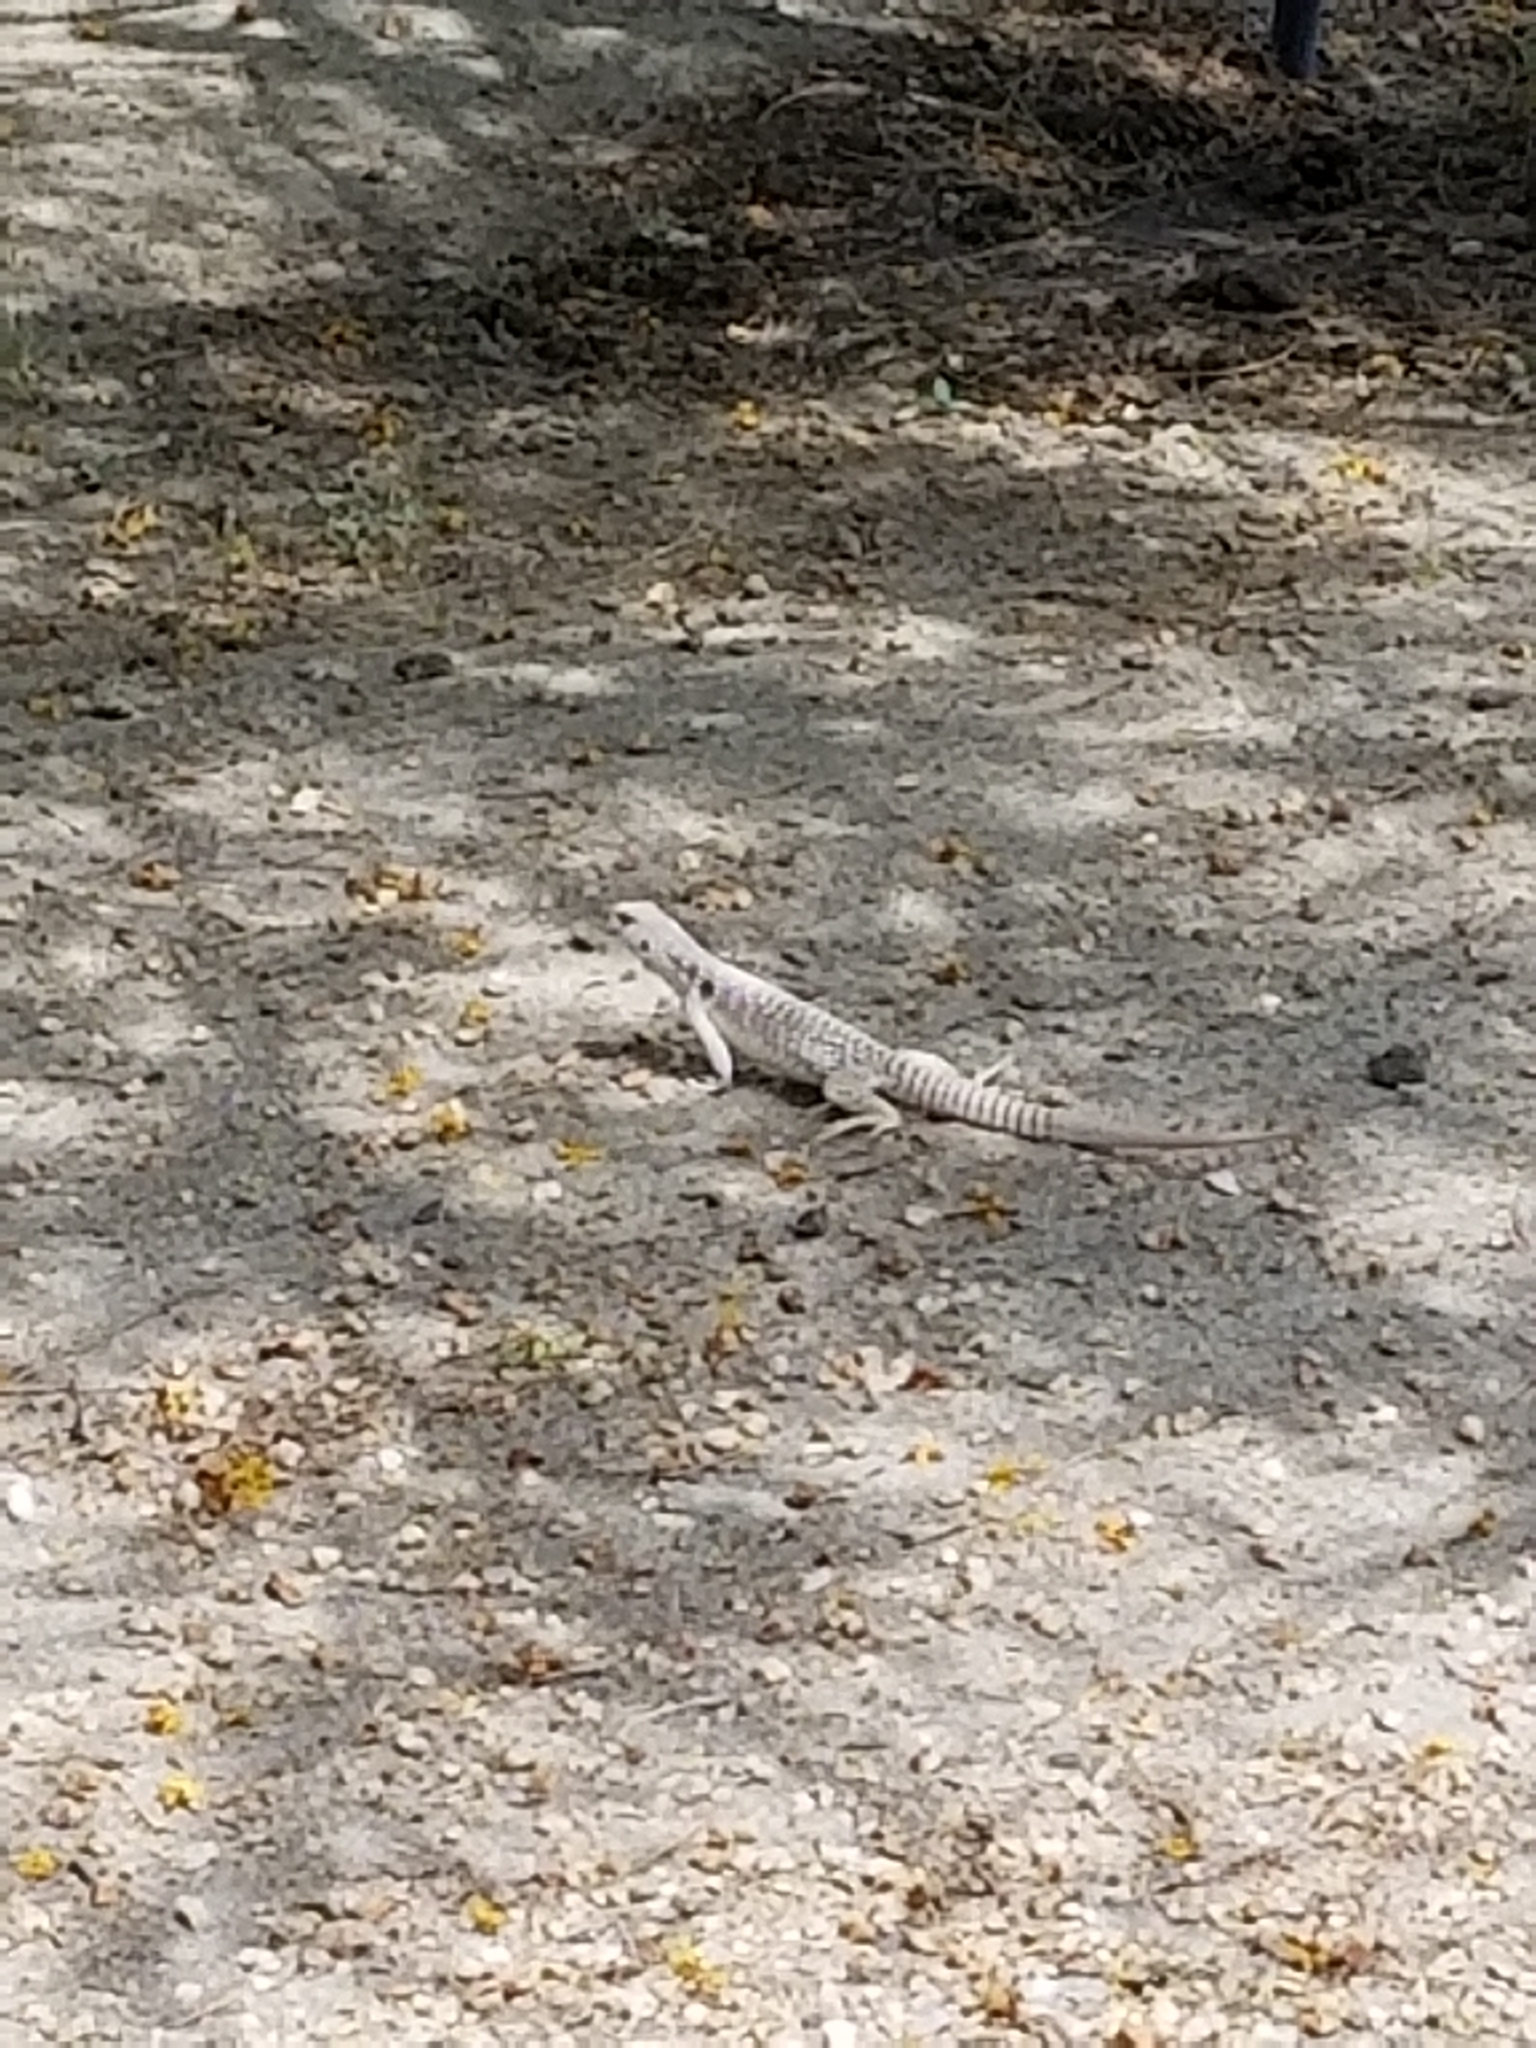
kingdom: Animalia
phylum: Chordata
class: Squamata
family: Iguanidae
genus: Dipsosaurus
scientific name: Dipsosaurus dorsalis
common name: Desert iguana
